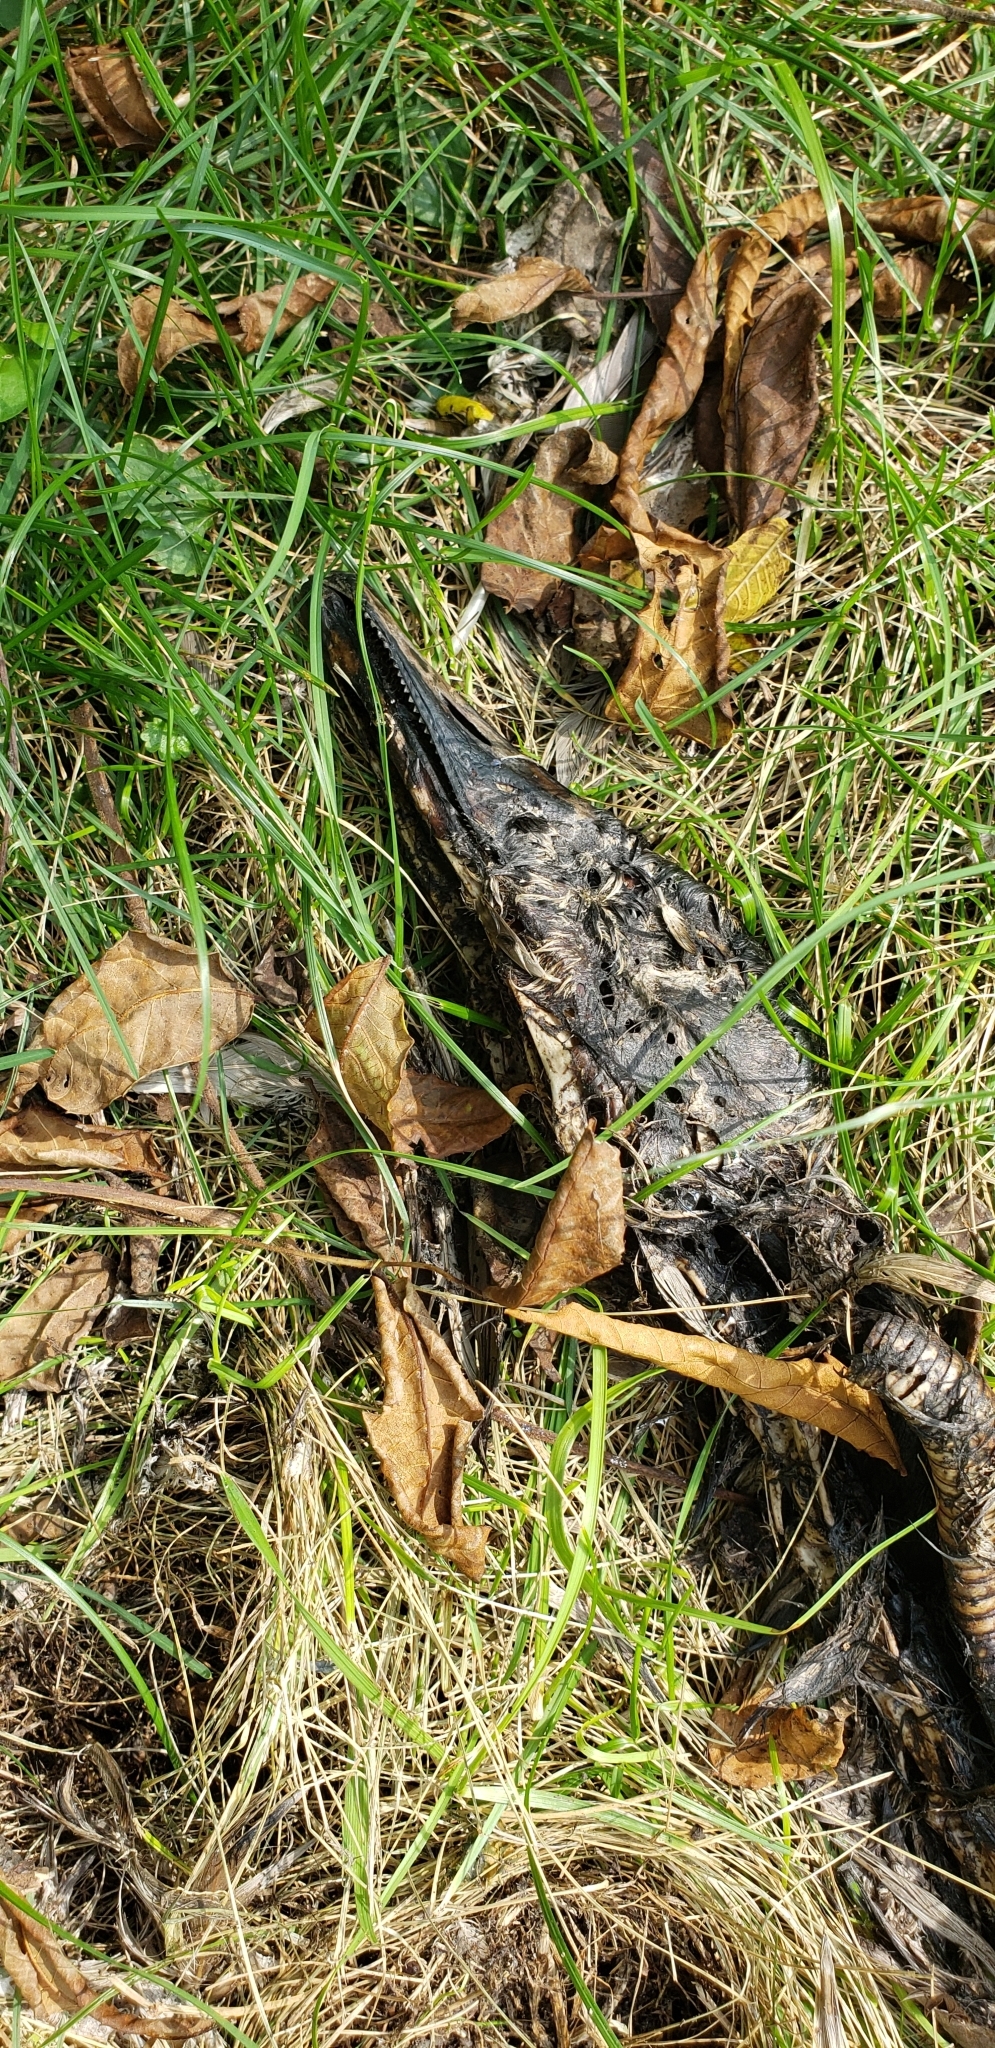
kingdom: Animalia
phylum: Chordata
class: Aves
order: Anseriformes
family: Anatidae
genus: Branta
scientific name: Branta canadensis
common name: Canada goose
